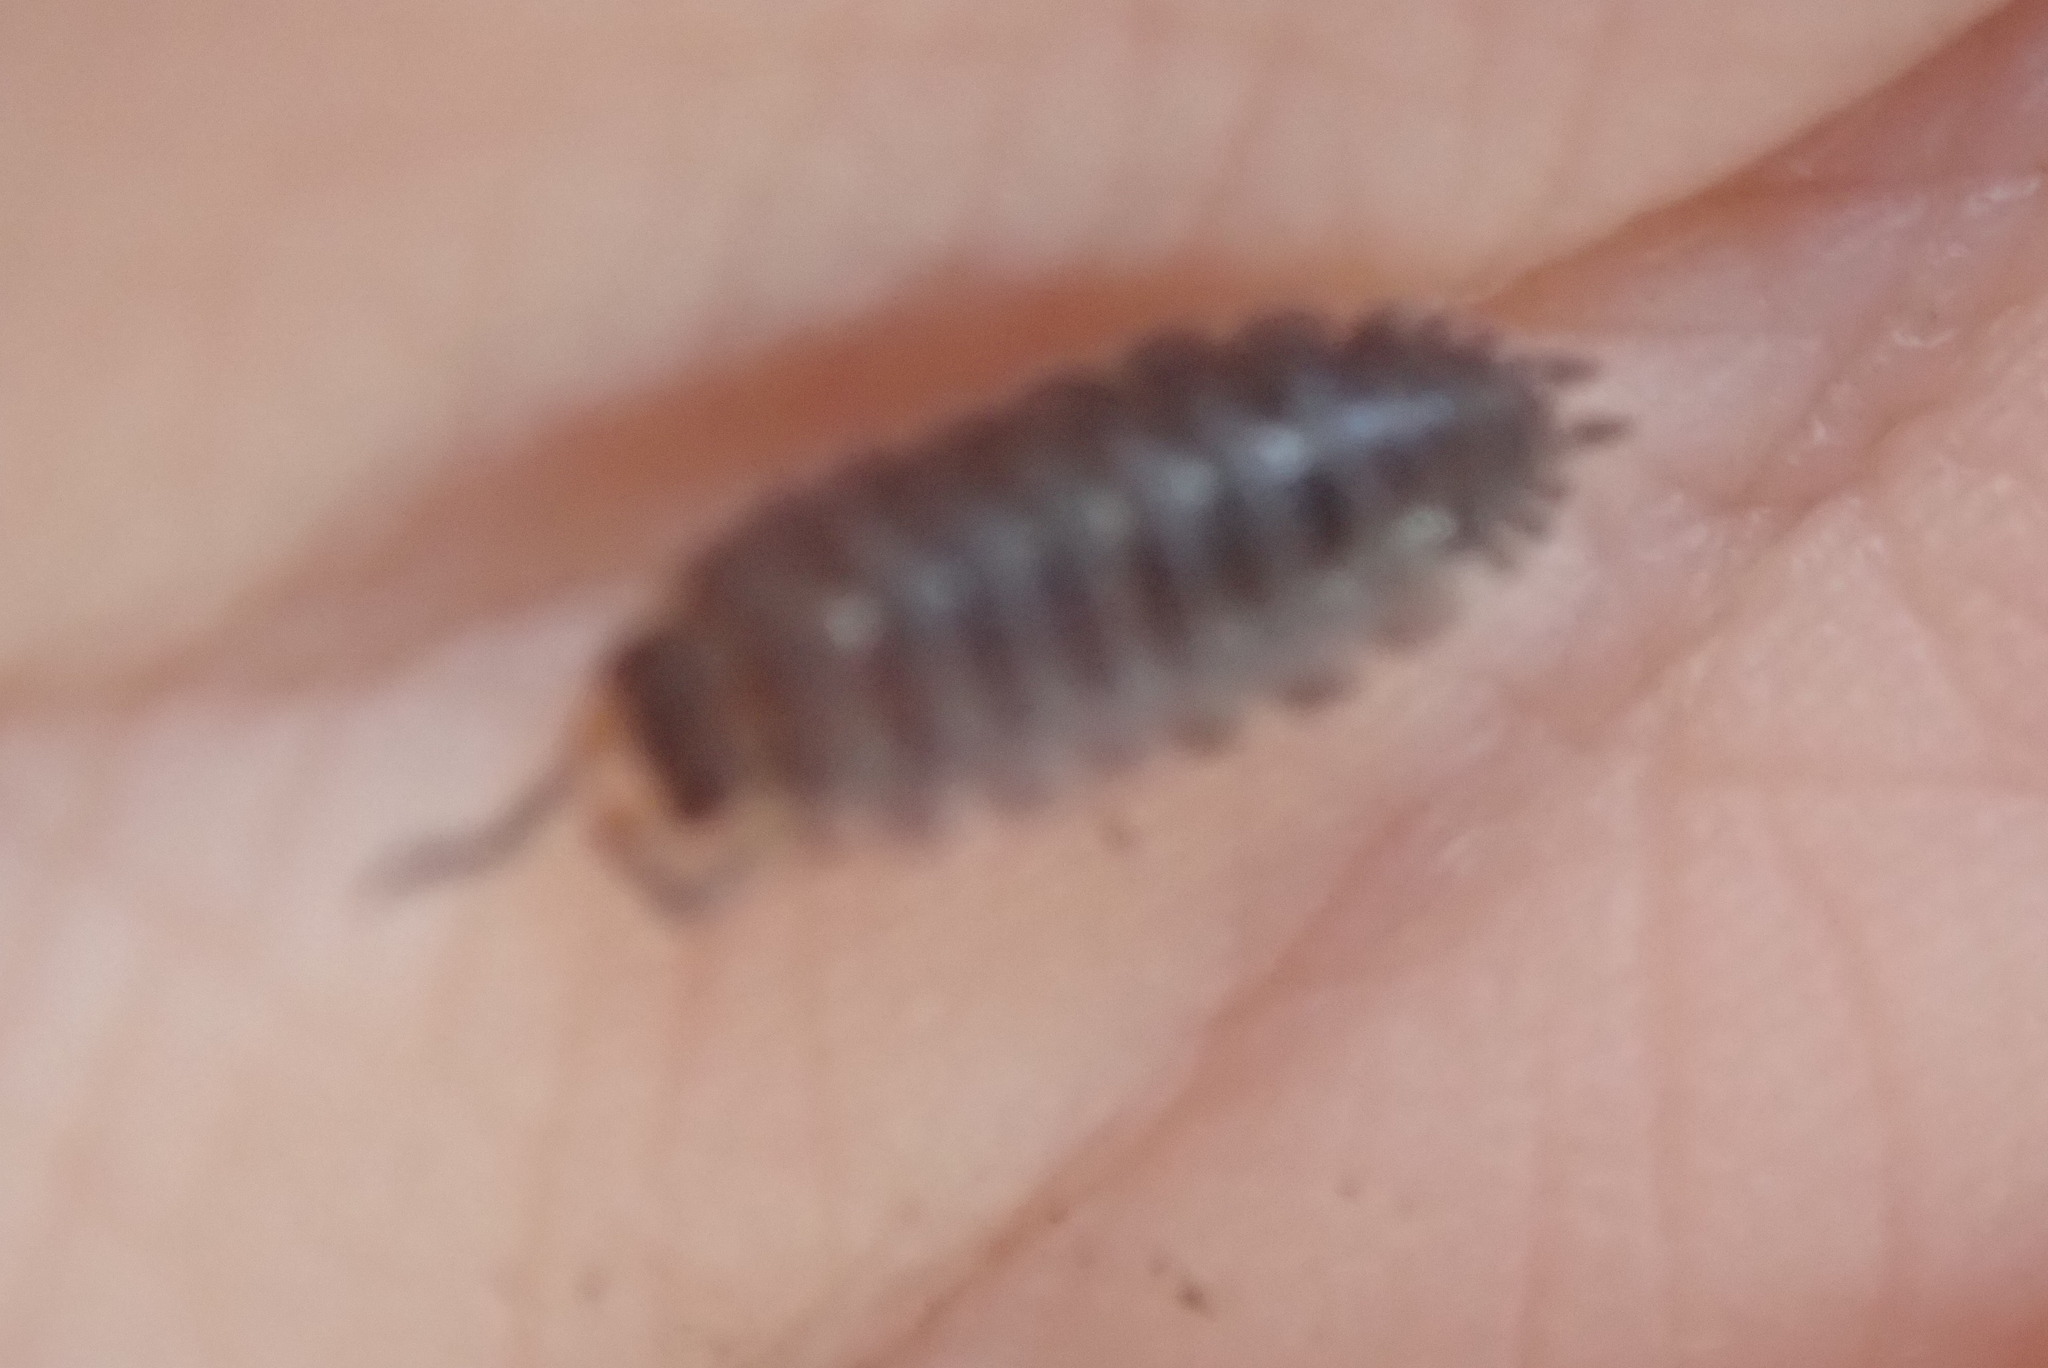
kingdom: Animalia
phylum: Arthropoda
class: Malacostraca
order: Isopoda
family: Porcellionidae
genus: Porcellio
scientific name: Porcellio scaber
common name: Common rough woodlouse
